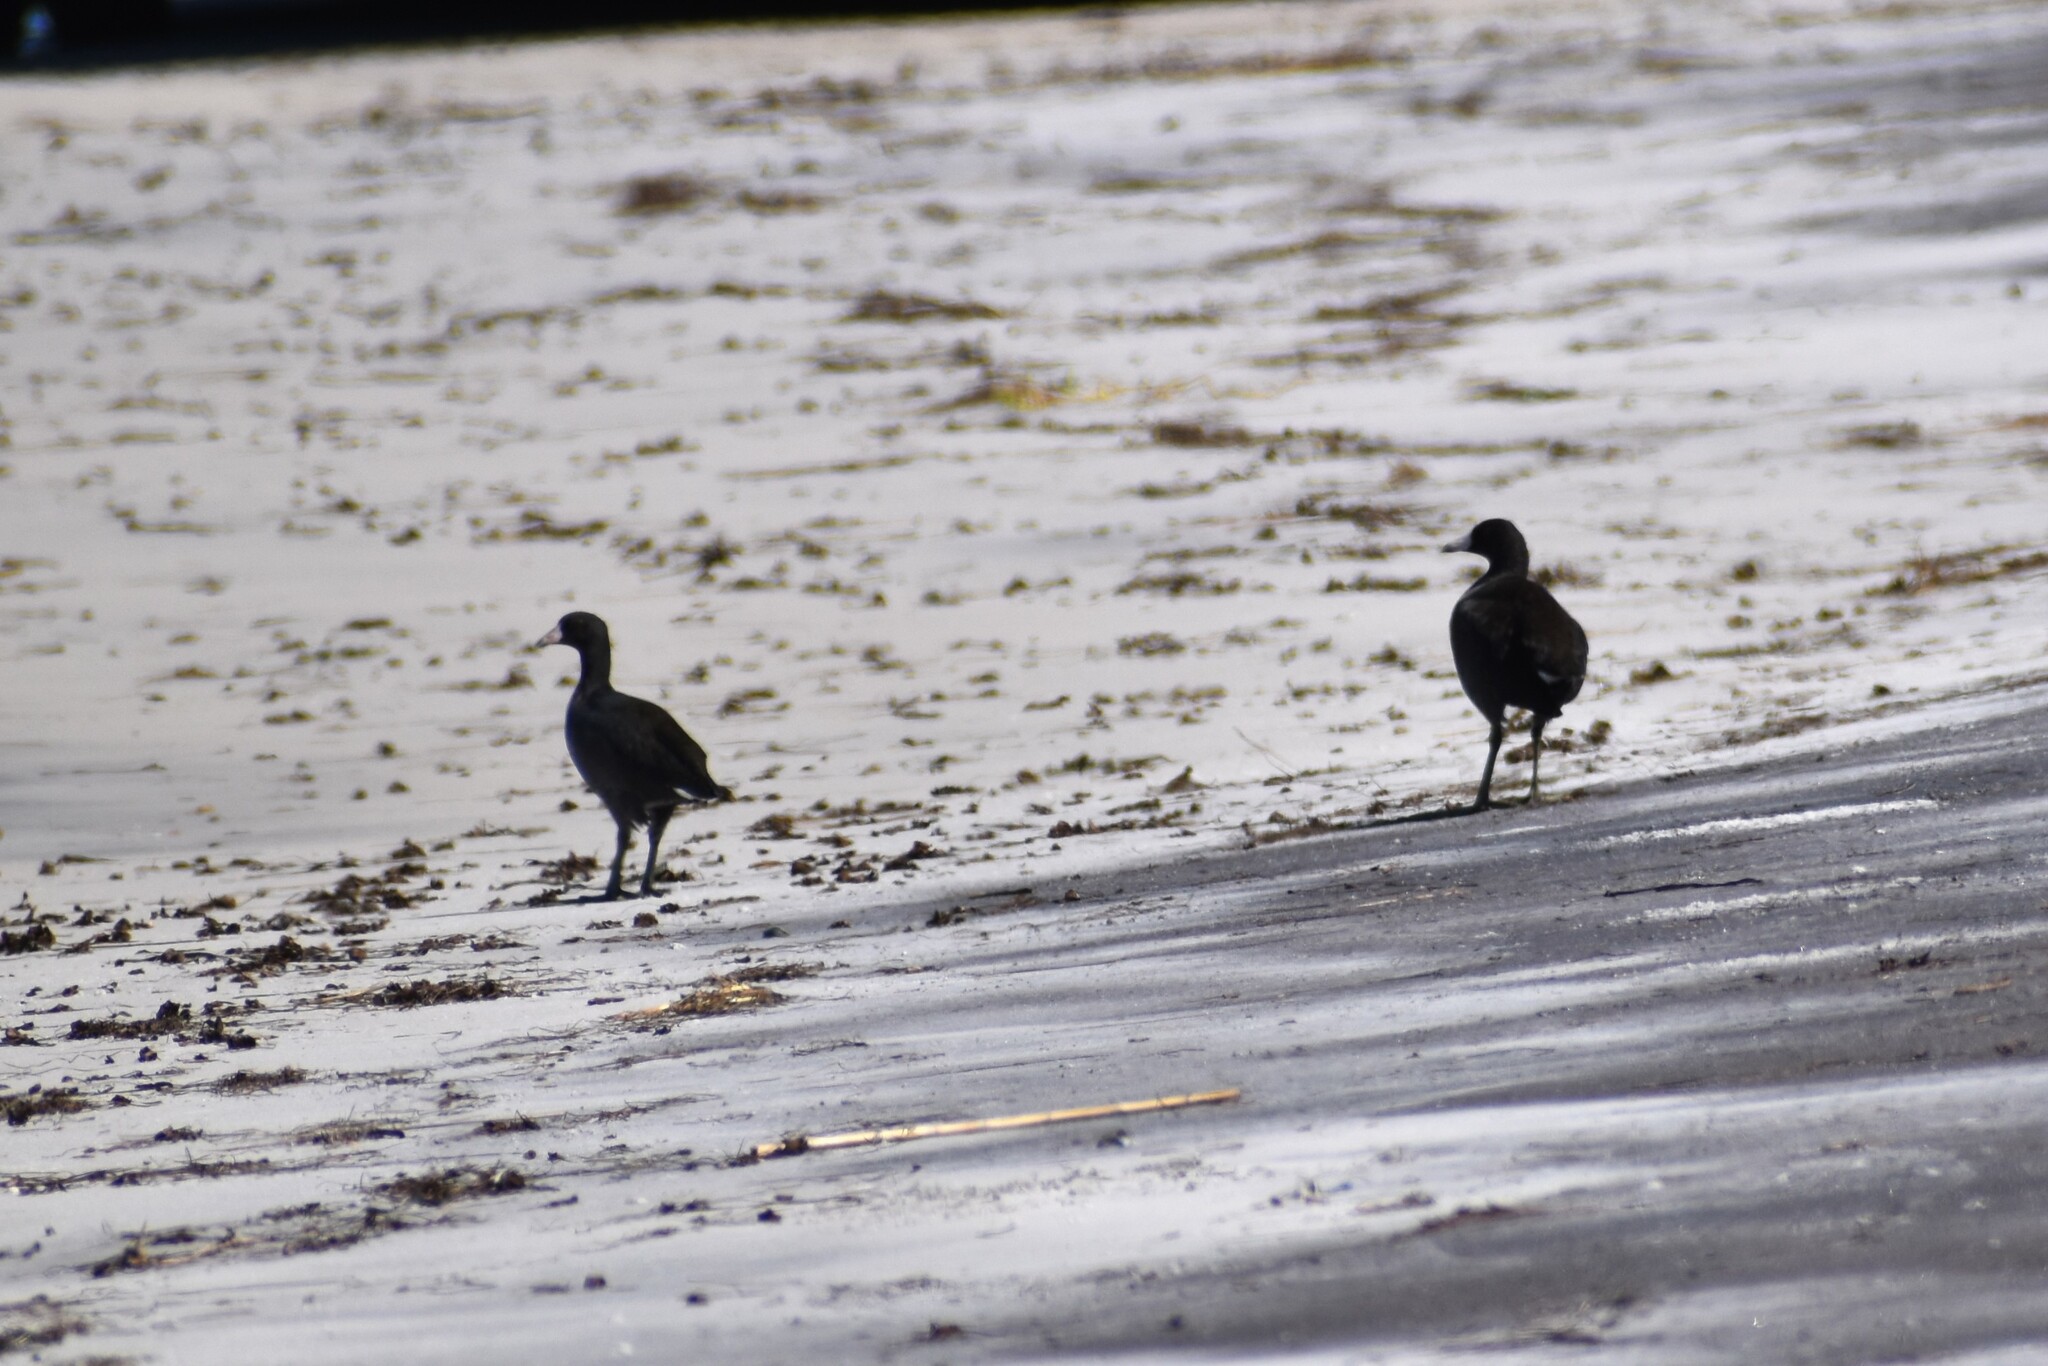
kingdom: Animalia
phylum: Chordata
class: Aves
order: Gruiformes
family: Rallidae
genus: Fulica
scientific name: Fulica americana
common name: American coot
